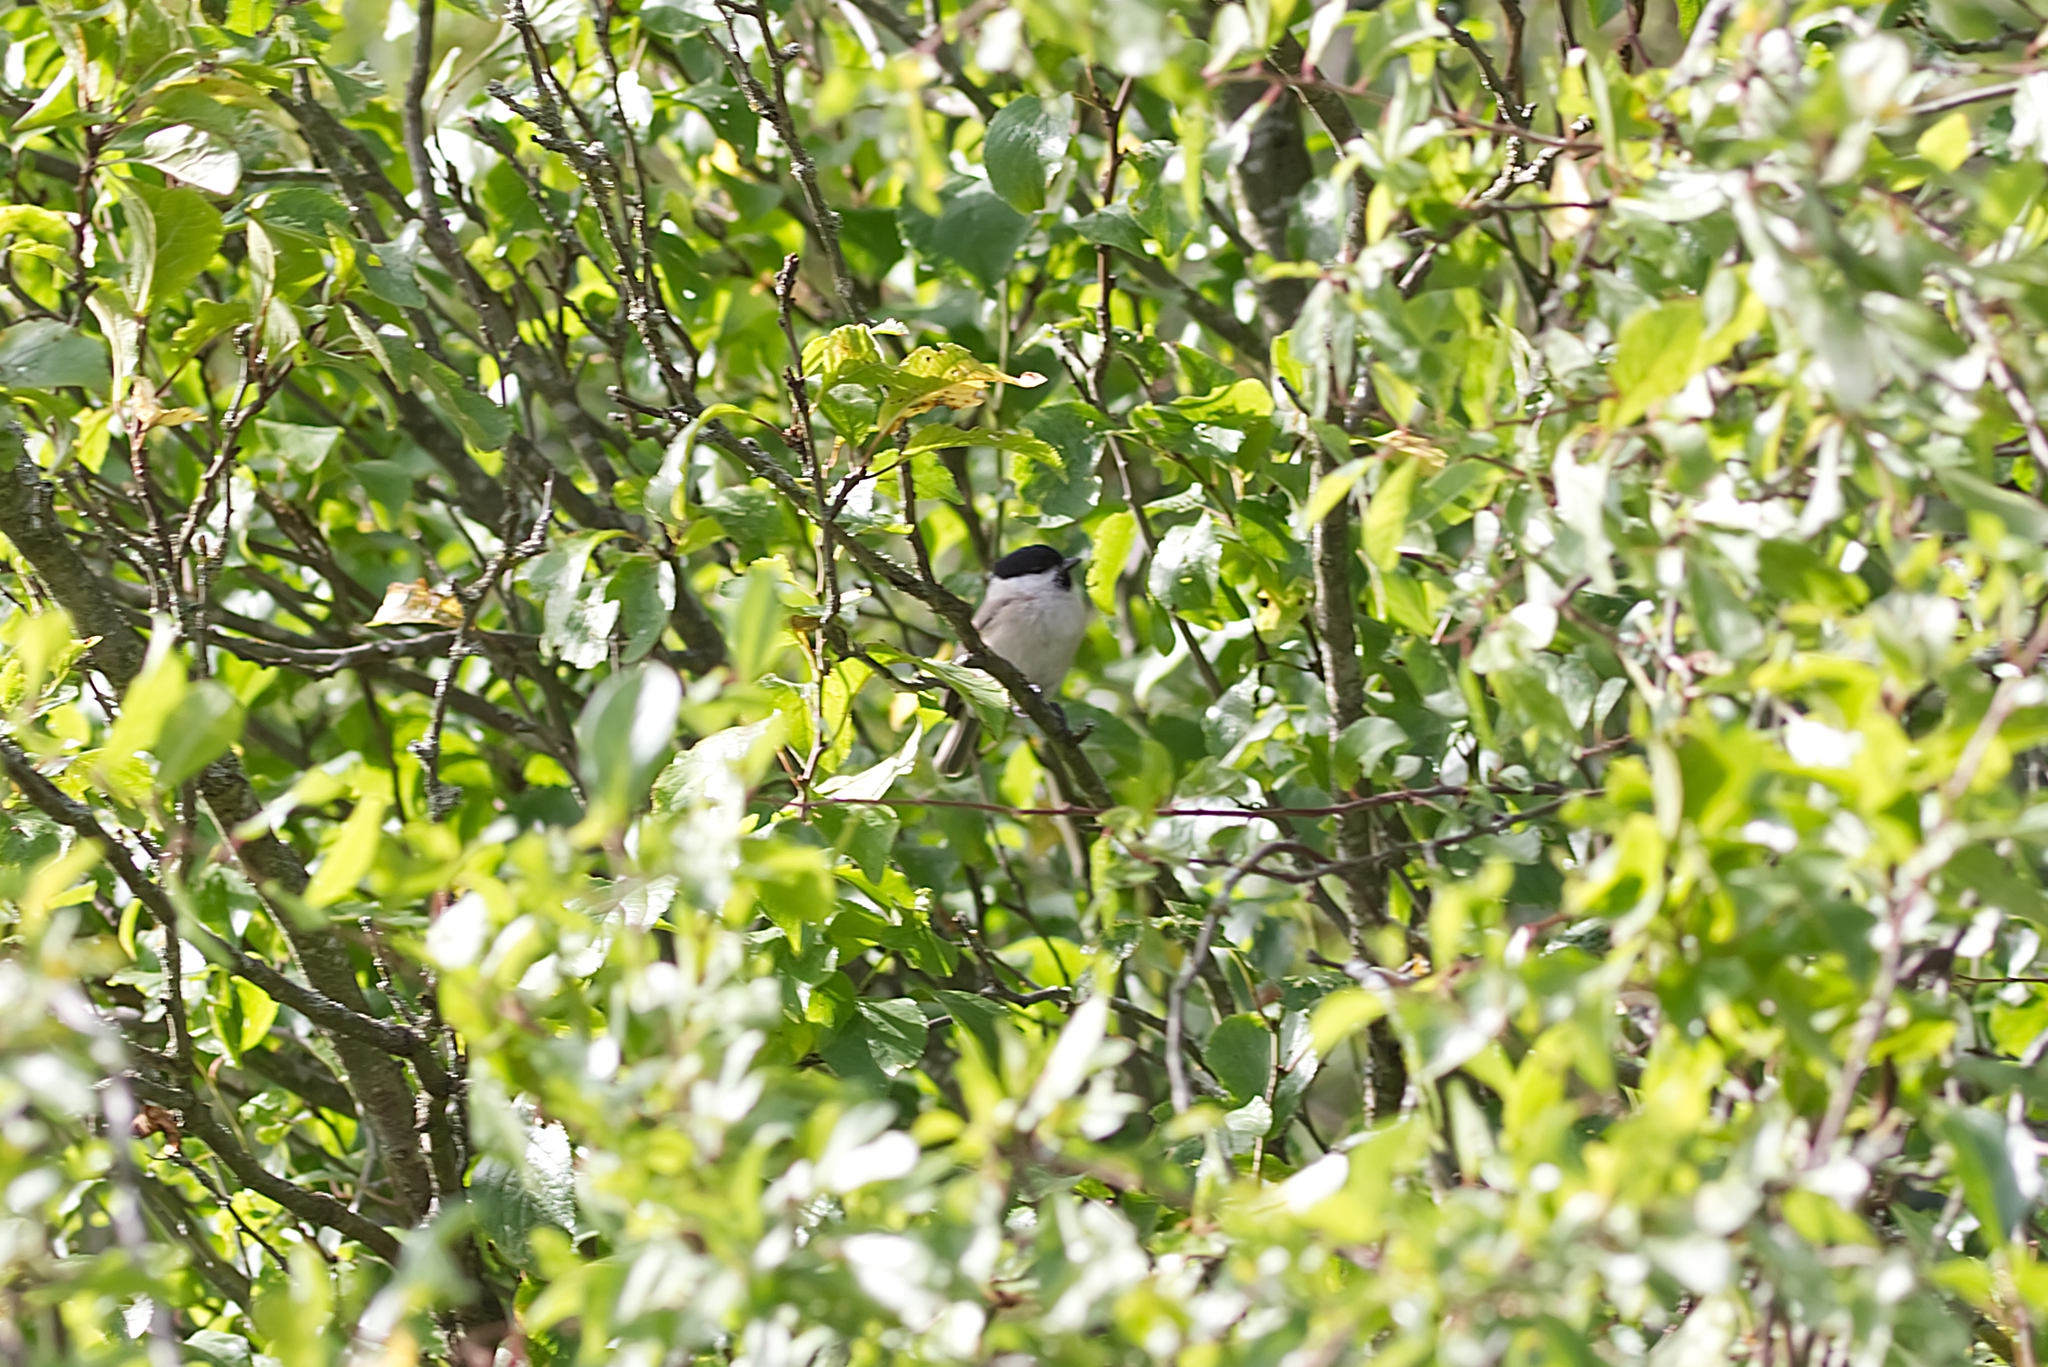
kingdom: Animalia
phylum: Chordata
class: Aves
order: Passeriformes
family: Paridae
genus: Poecile
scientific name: Poecile palustris
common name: Marsh tit
